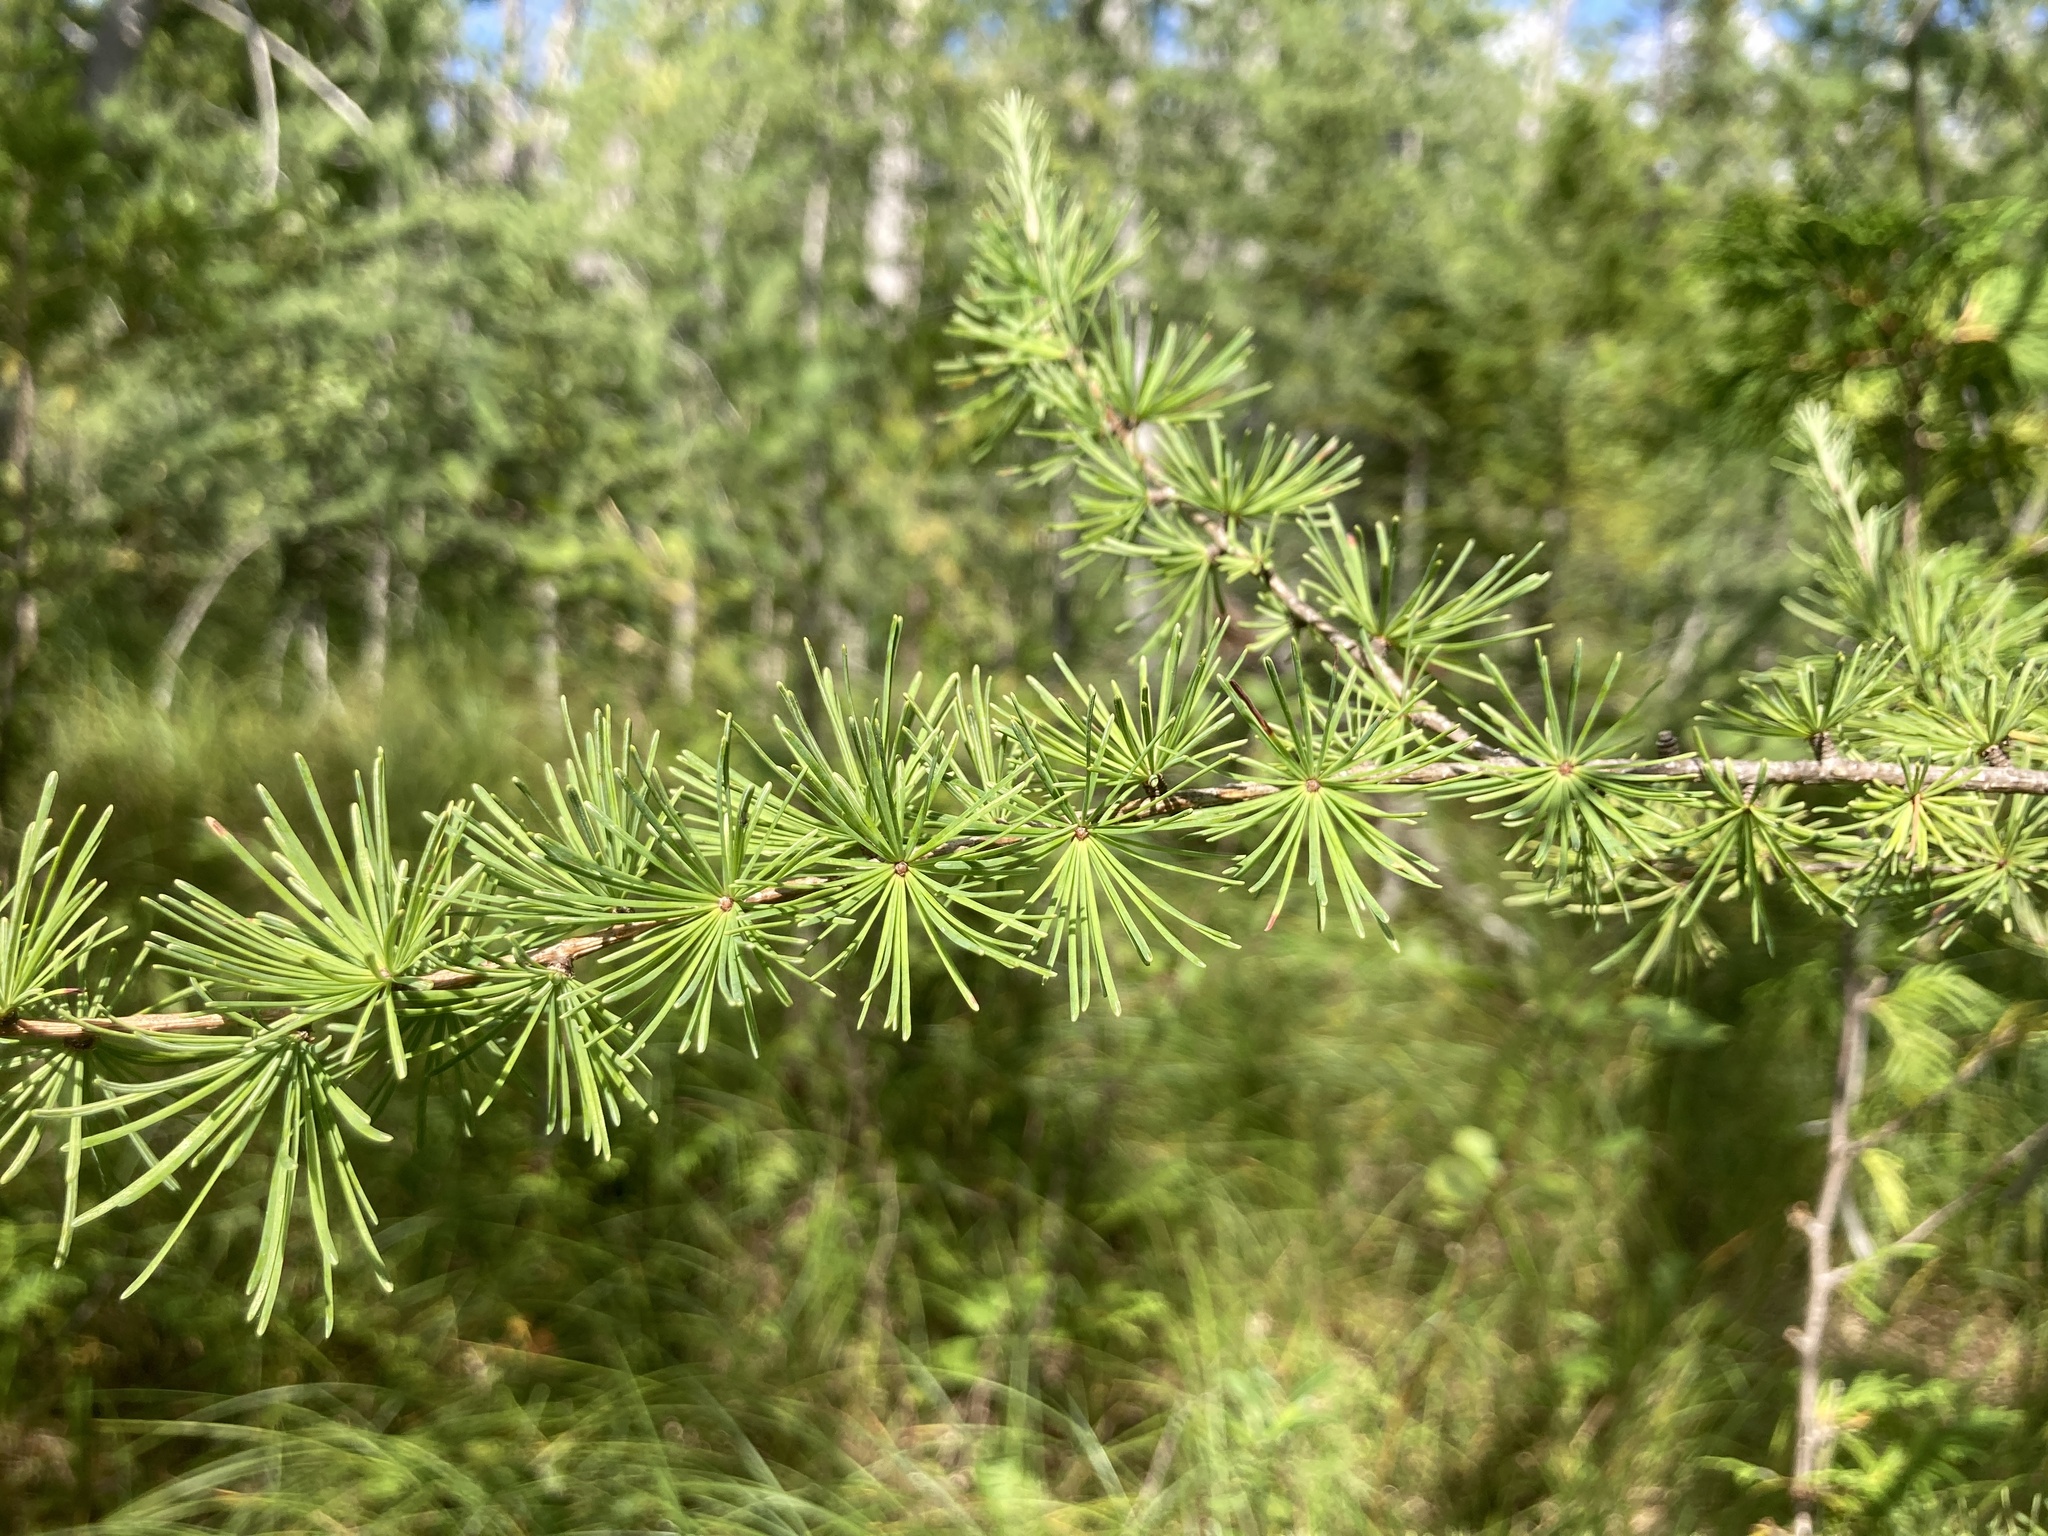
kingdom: Plantae
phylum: Tracheophyta
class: Pinopsida
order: Pinales
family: Pinaceae
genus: Larix
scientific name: Larix laricina
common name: American larch
